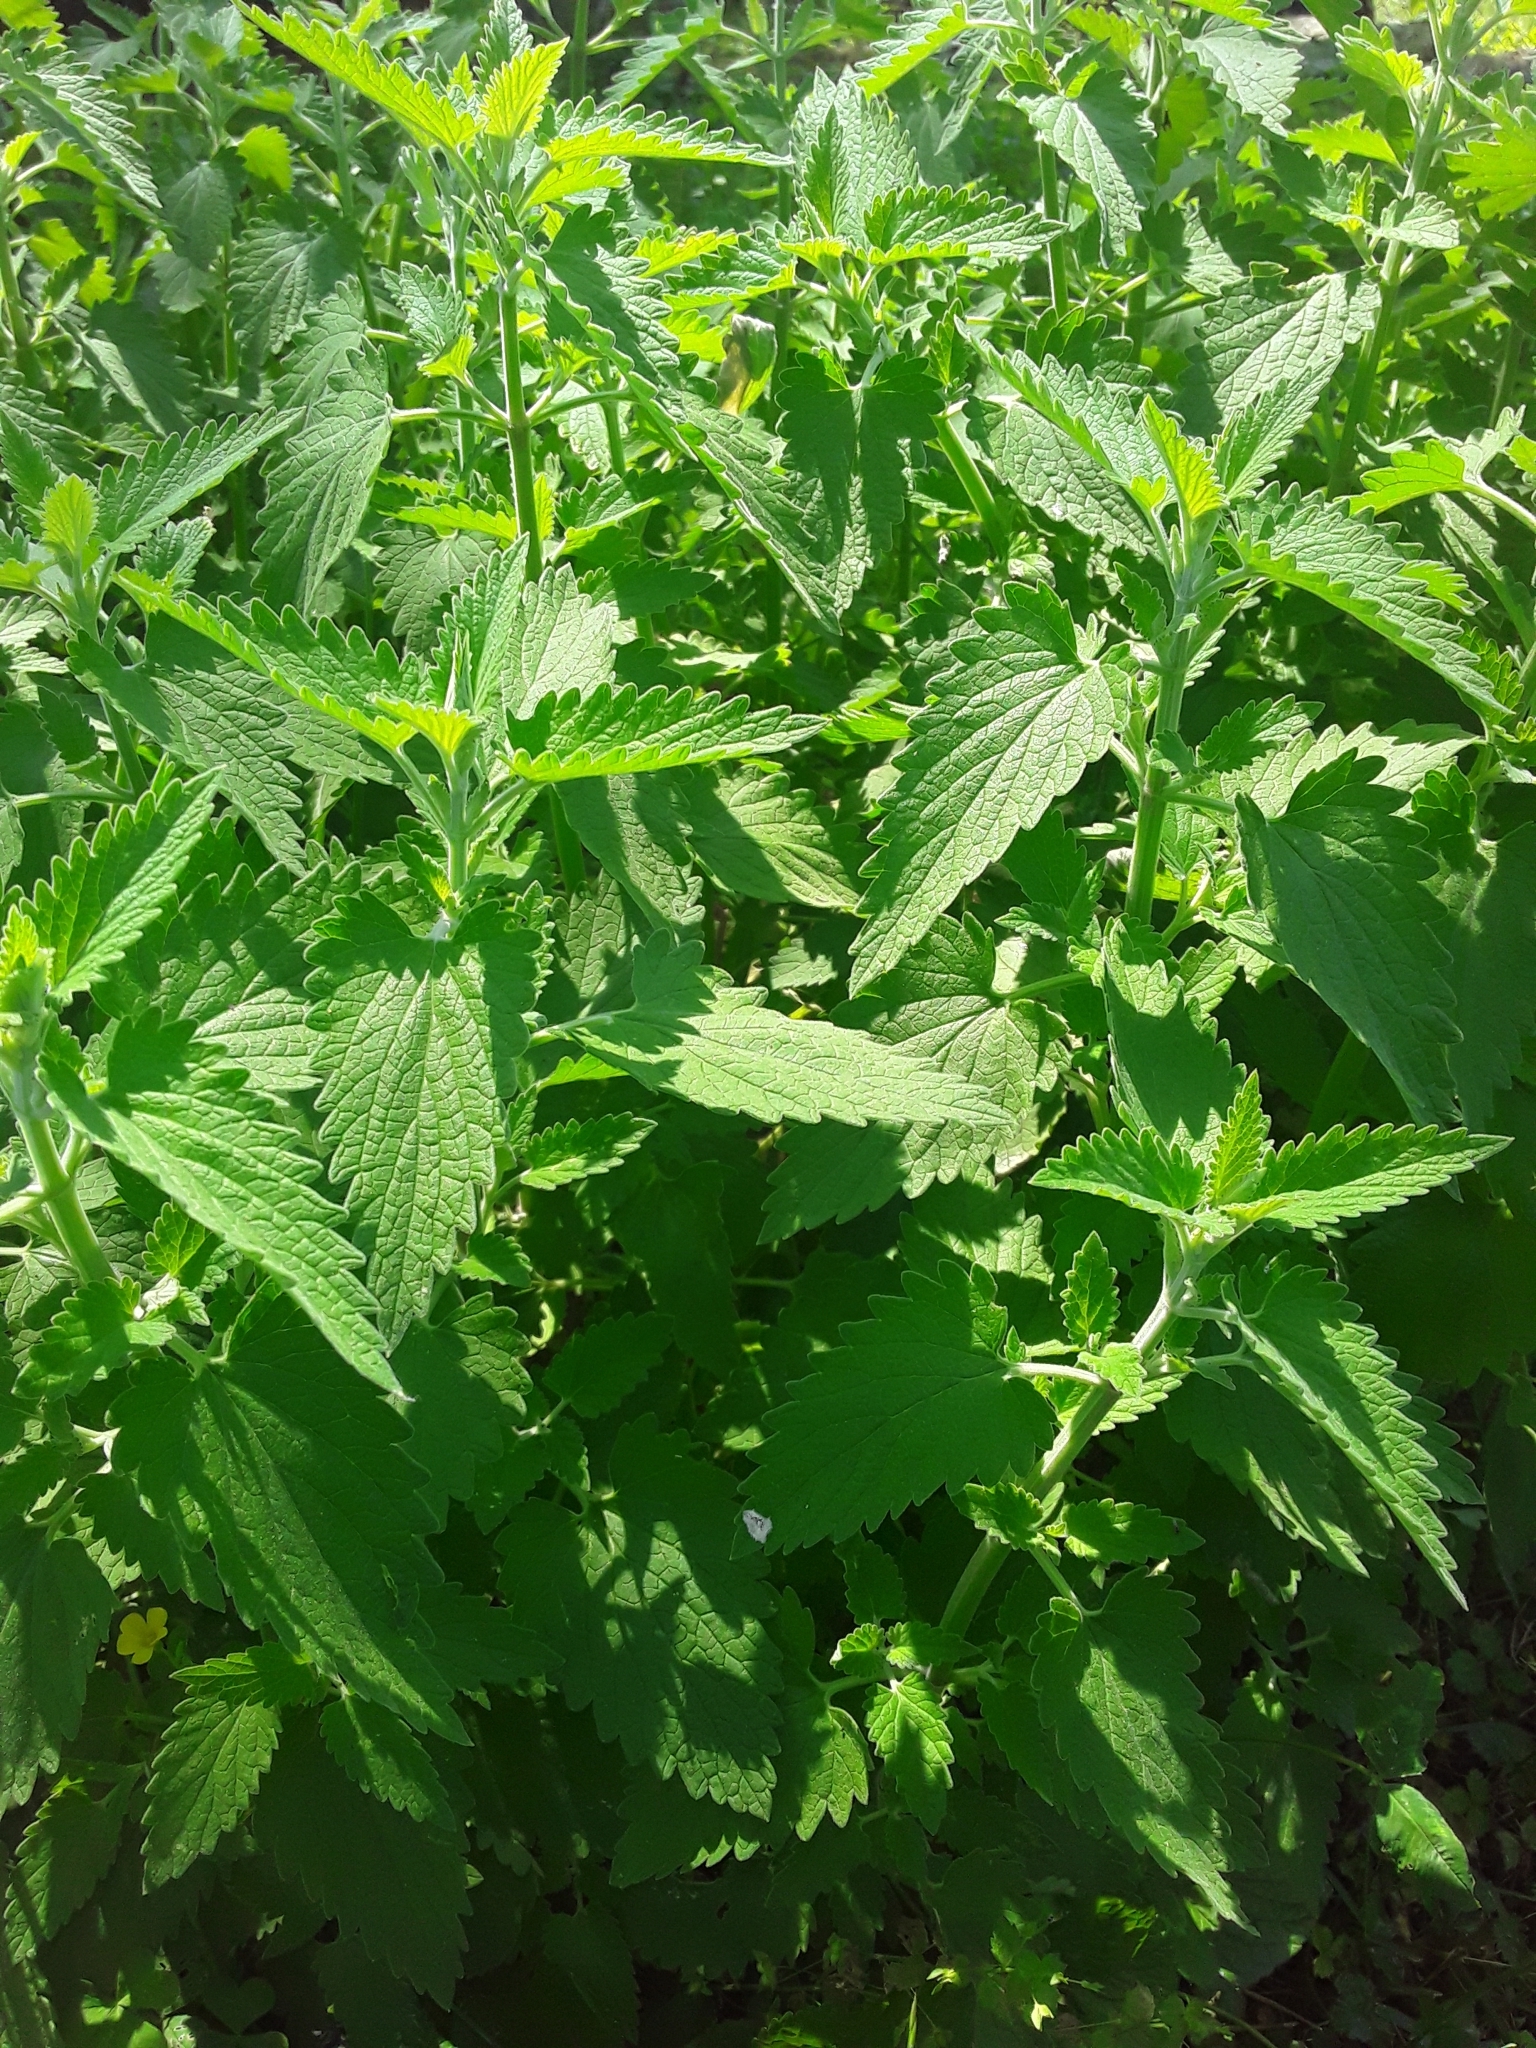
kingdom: Plantae
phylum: Tracheophyta
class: Magnoliopsida
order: Lamiales
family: Lamiaceae
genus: Nepeta
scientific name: Nepeta cataria
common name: Catnip
